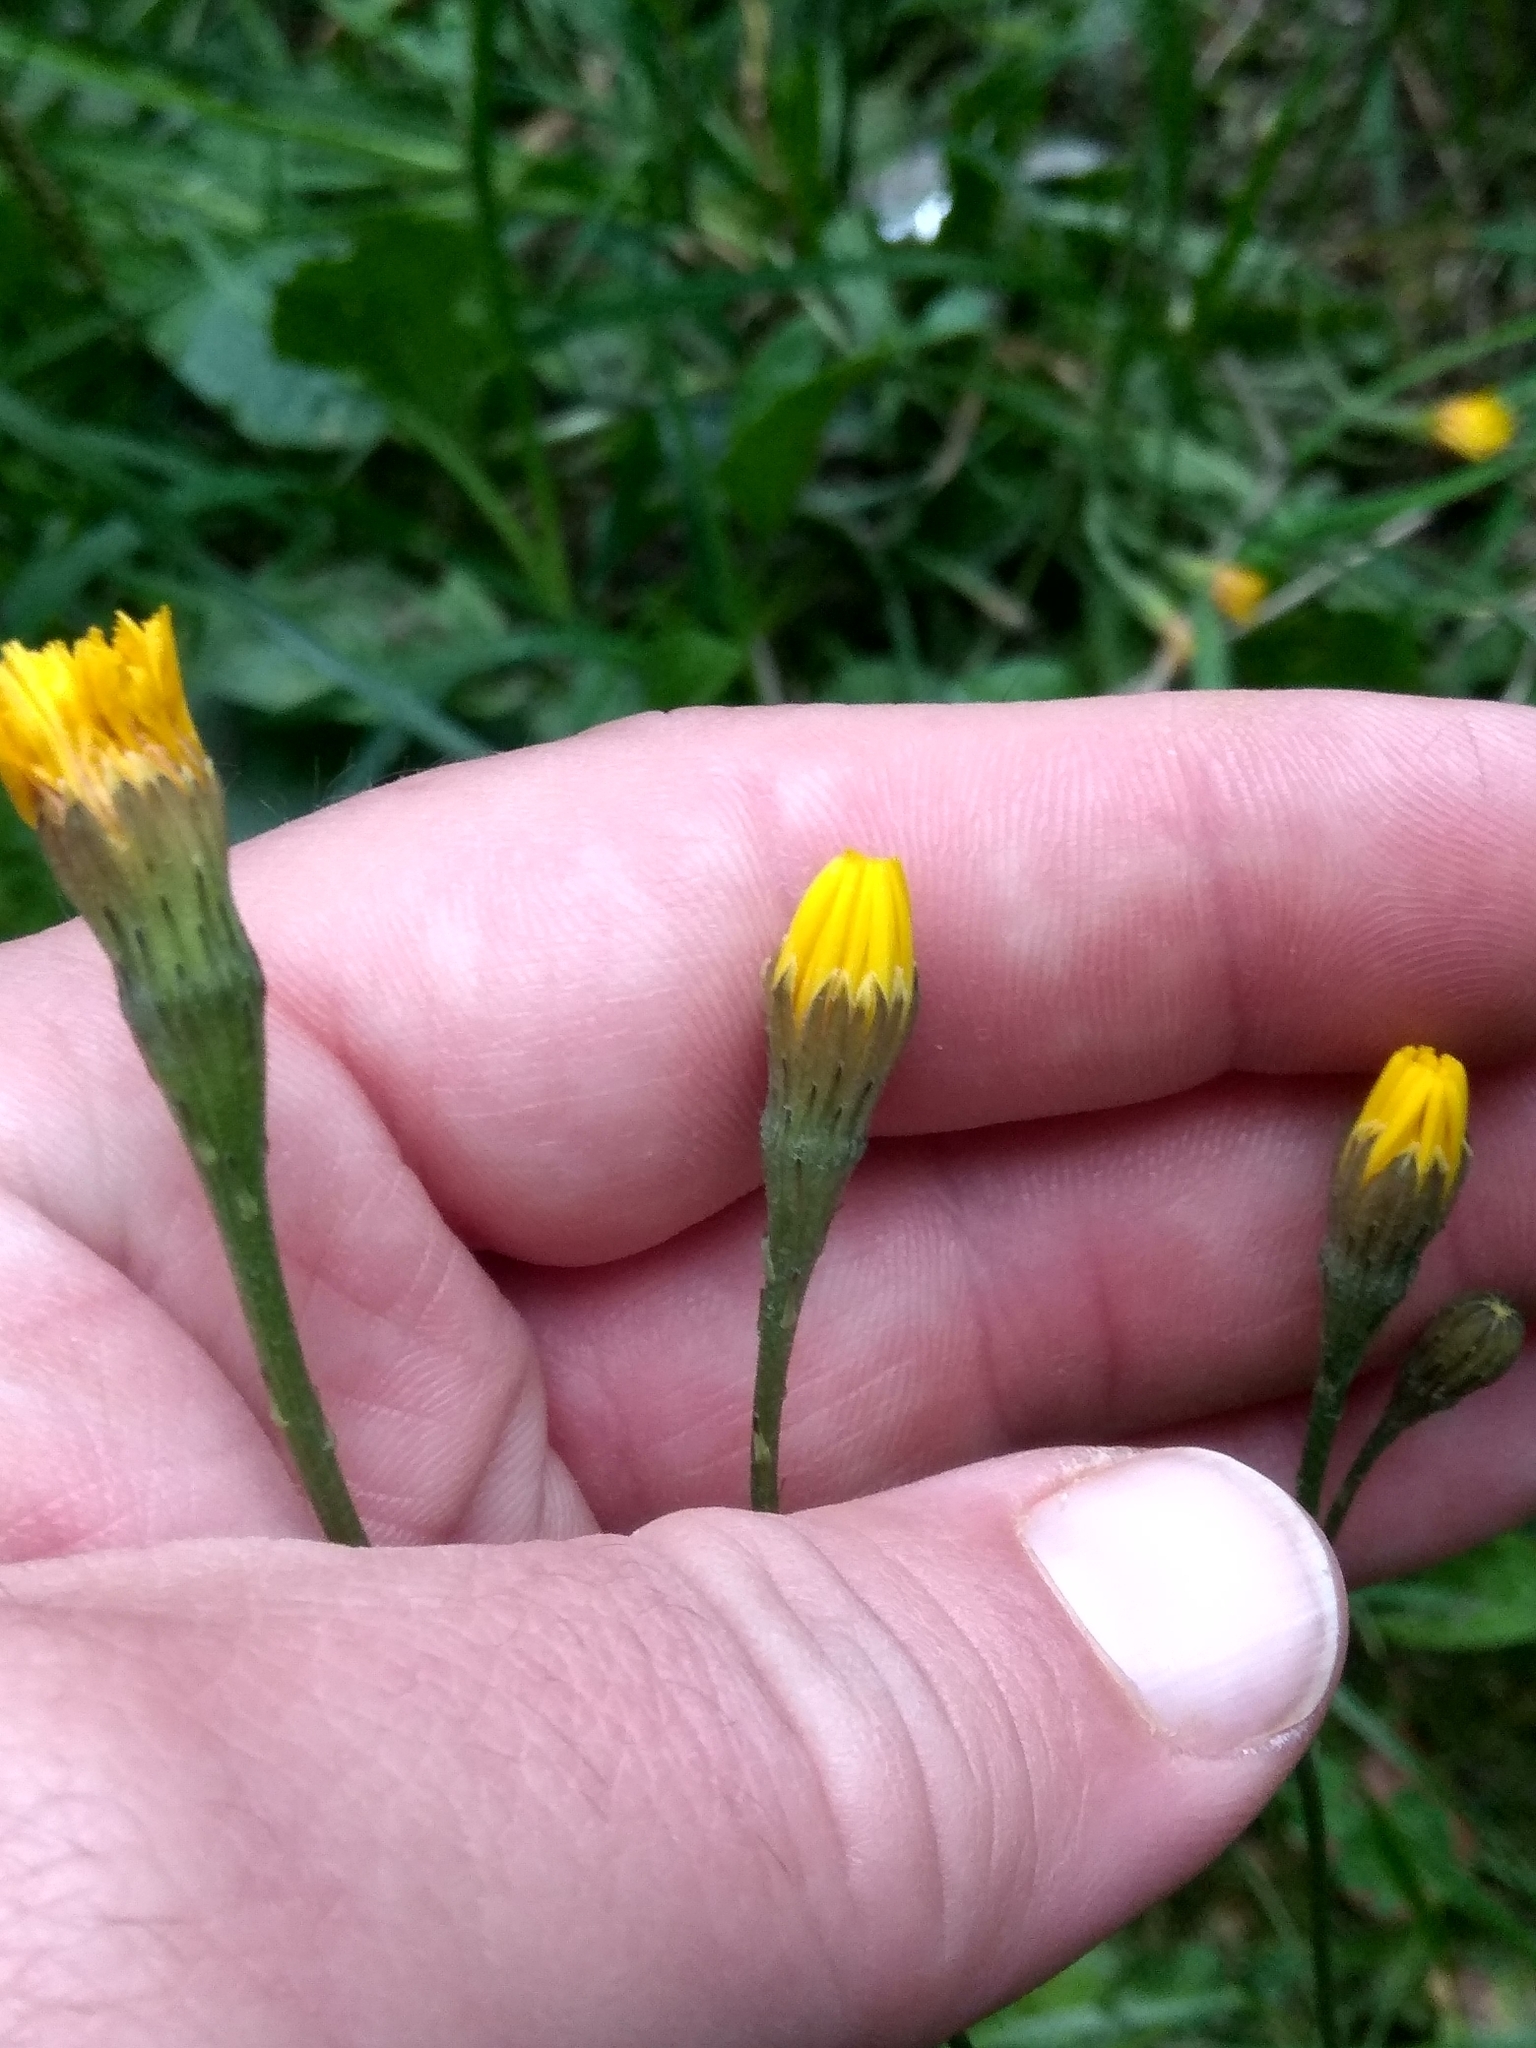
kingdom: Plantae
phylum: Tracheophyta
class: Magnoliopsida
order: Asterales
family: Asteraceae
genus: Scorzoneroides
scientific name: Scorzoneroides autumnalis
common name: Autumn hawkbit
